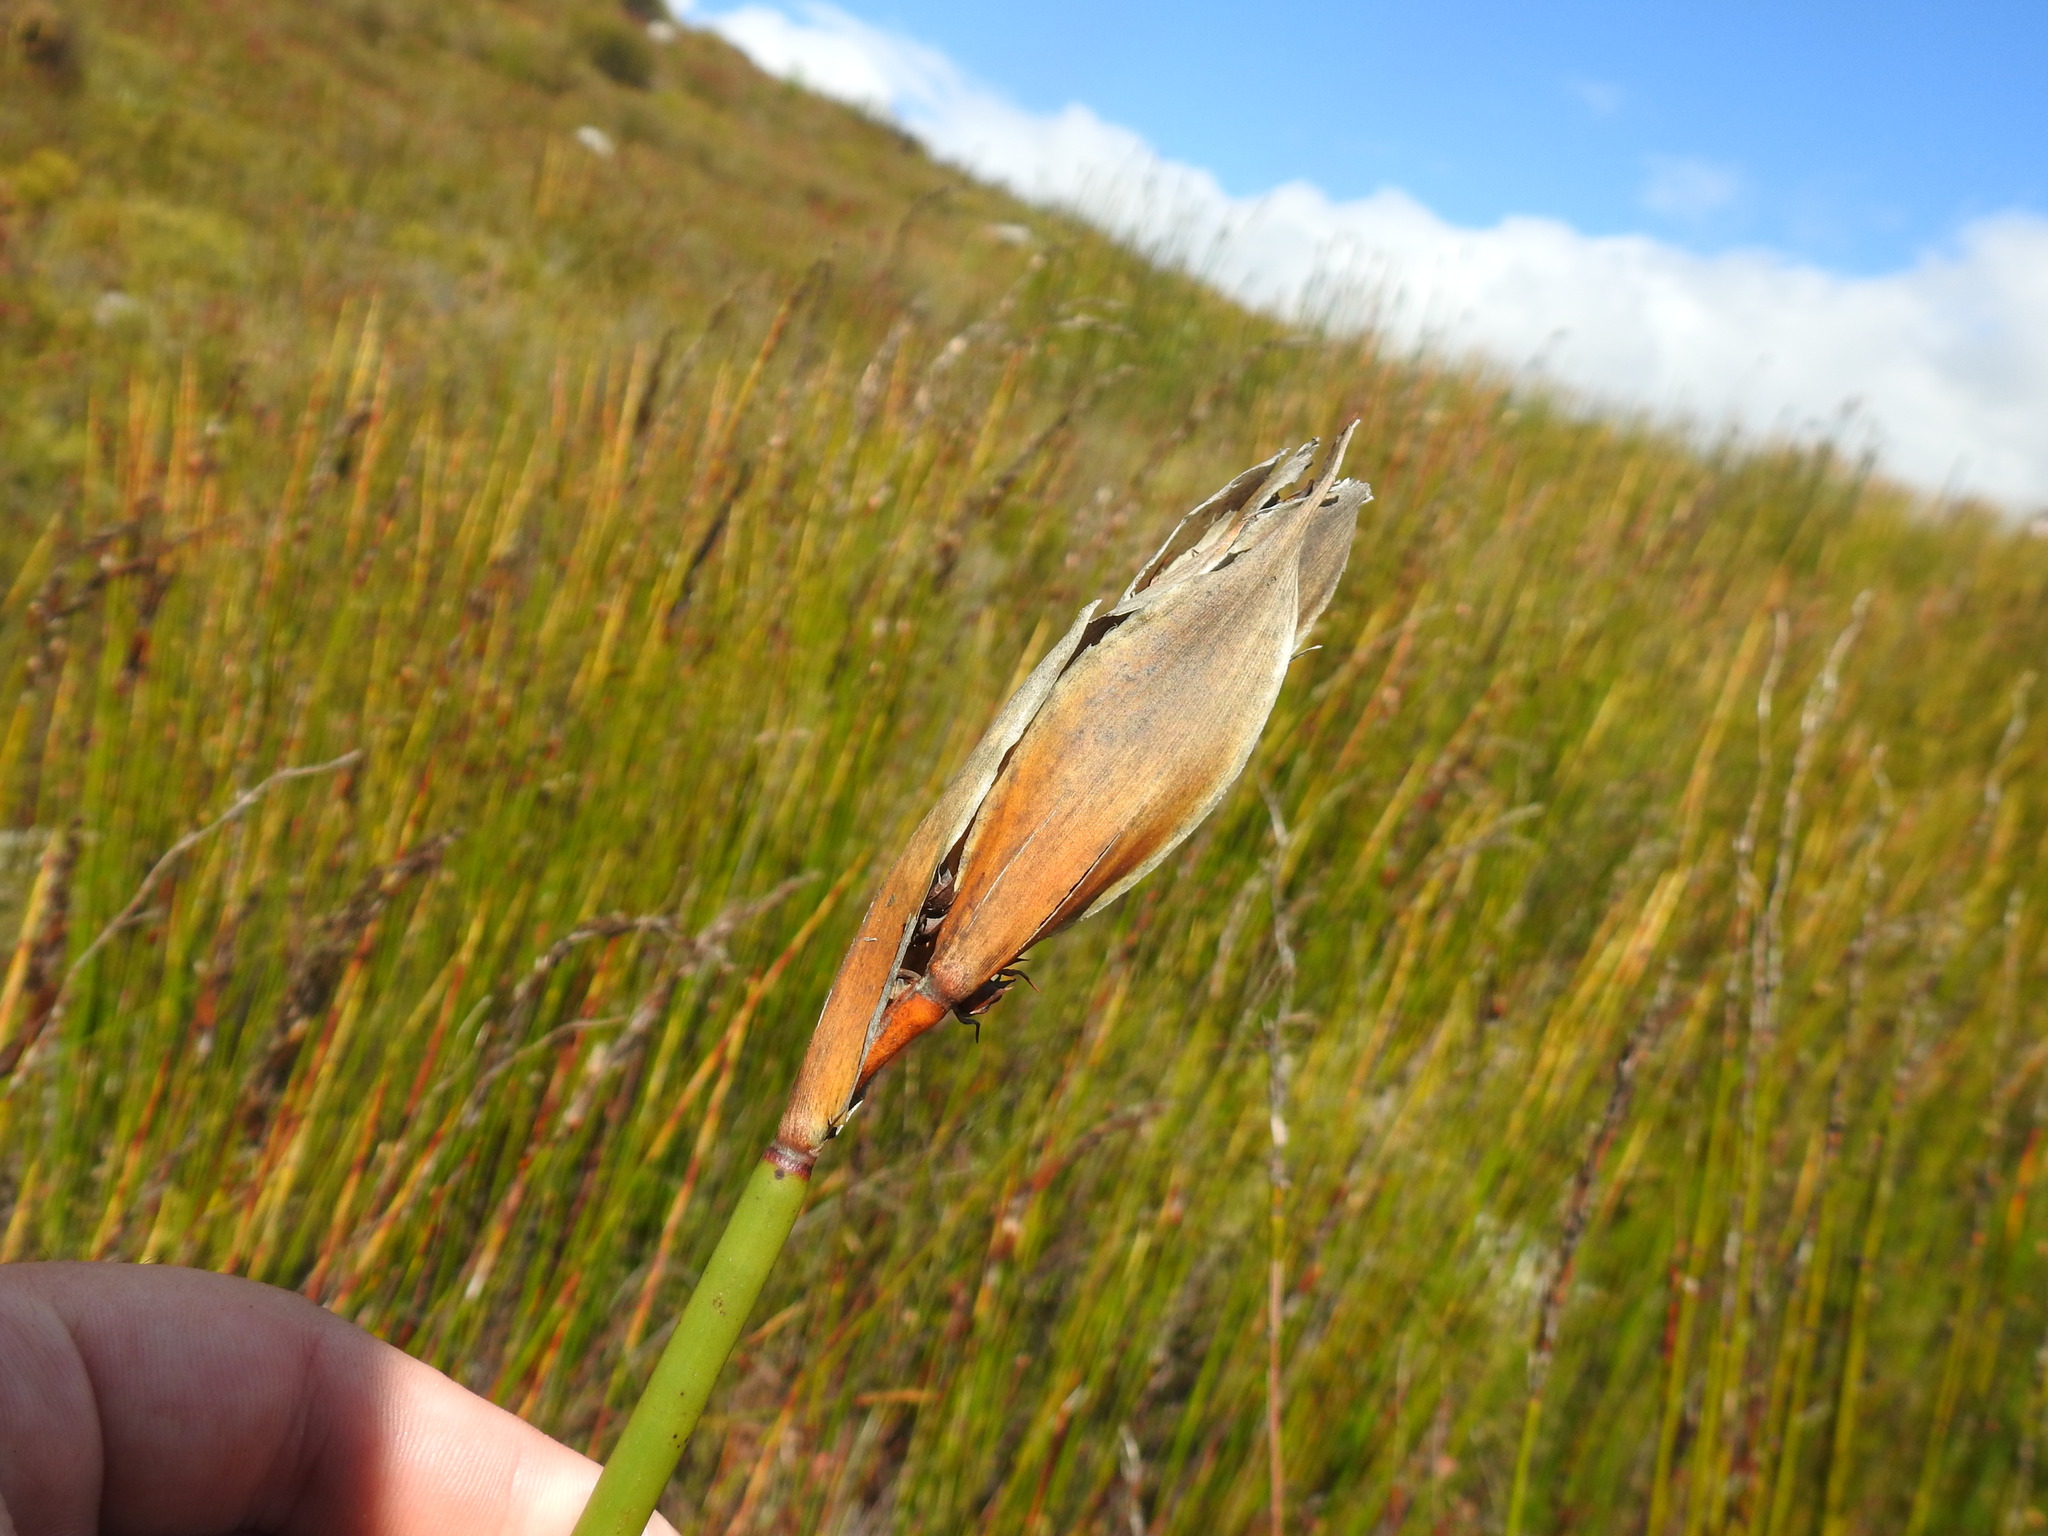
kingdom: Plantae
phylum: Tracheophyta
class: Liliopsida
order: Poales
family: Restionaceae
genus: Elegia
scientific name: Elegia mucronata
